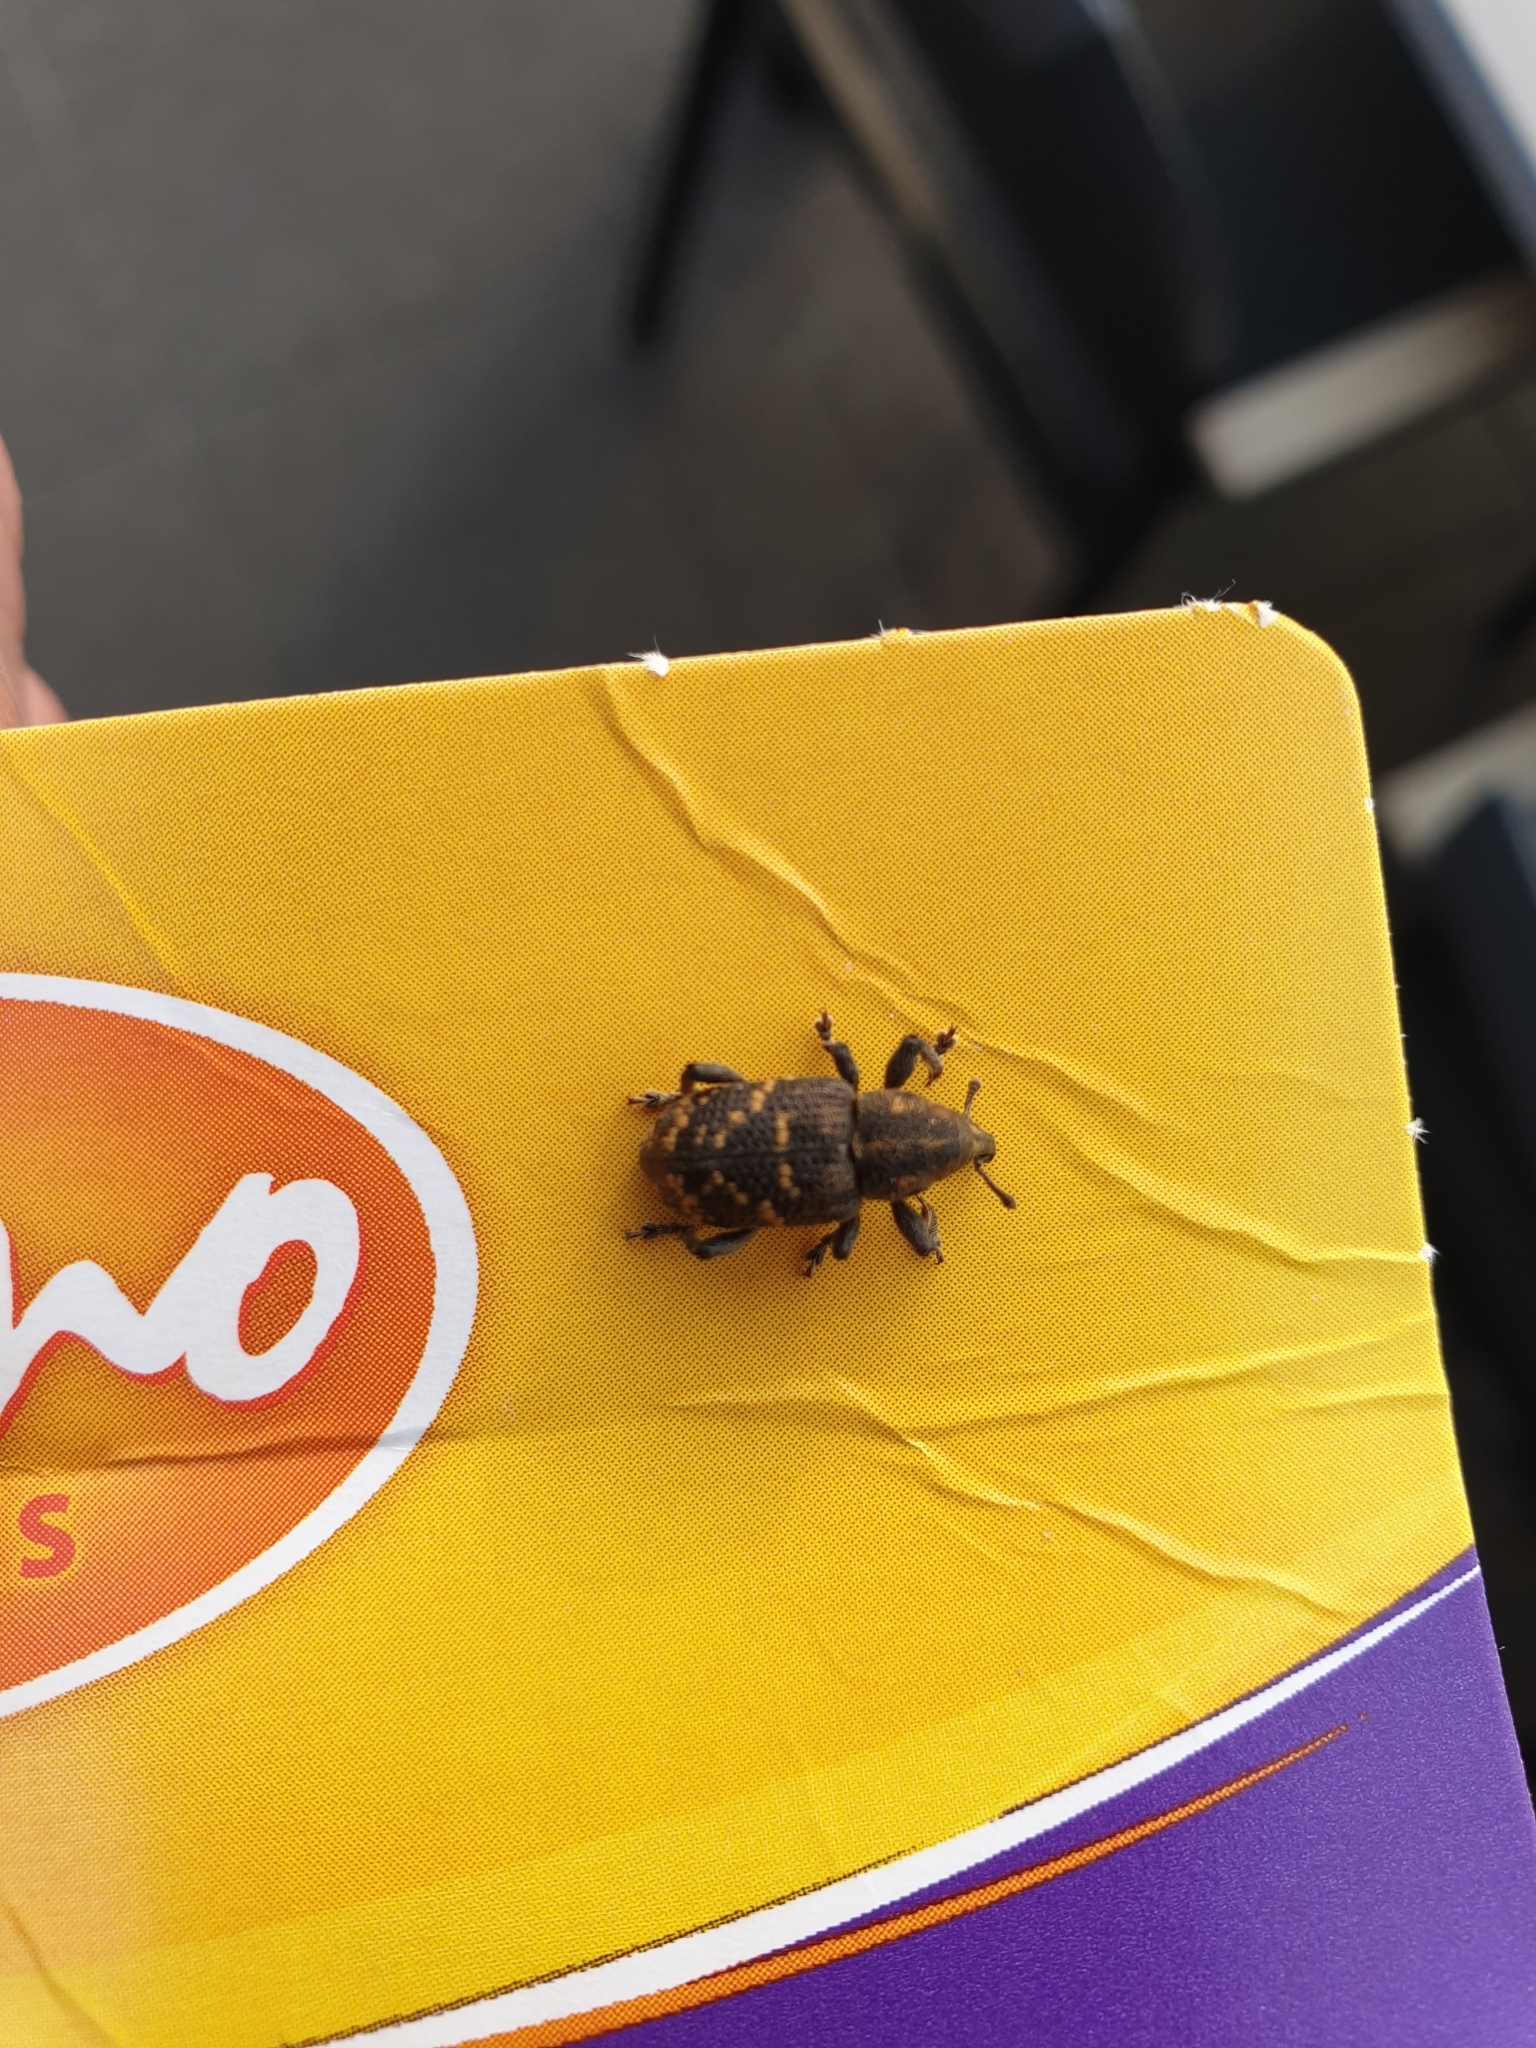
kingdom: Animalia
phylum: Arthropoda
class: Insecta
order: Coleoptera
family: Curculionidae
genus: Hylobius
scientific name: Hylobius abietis
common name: Large pine weevil
